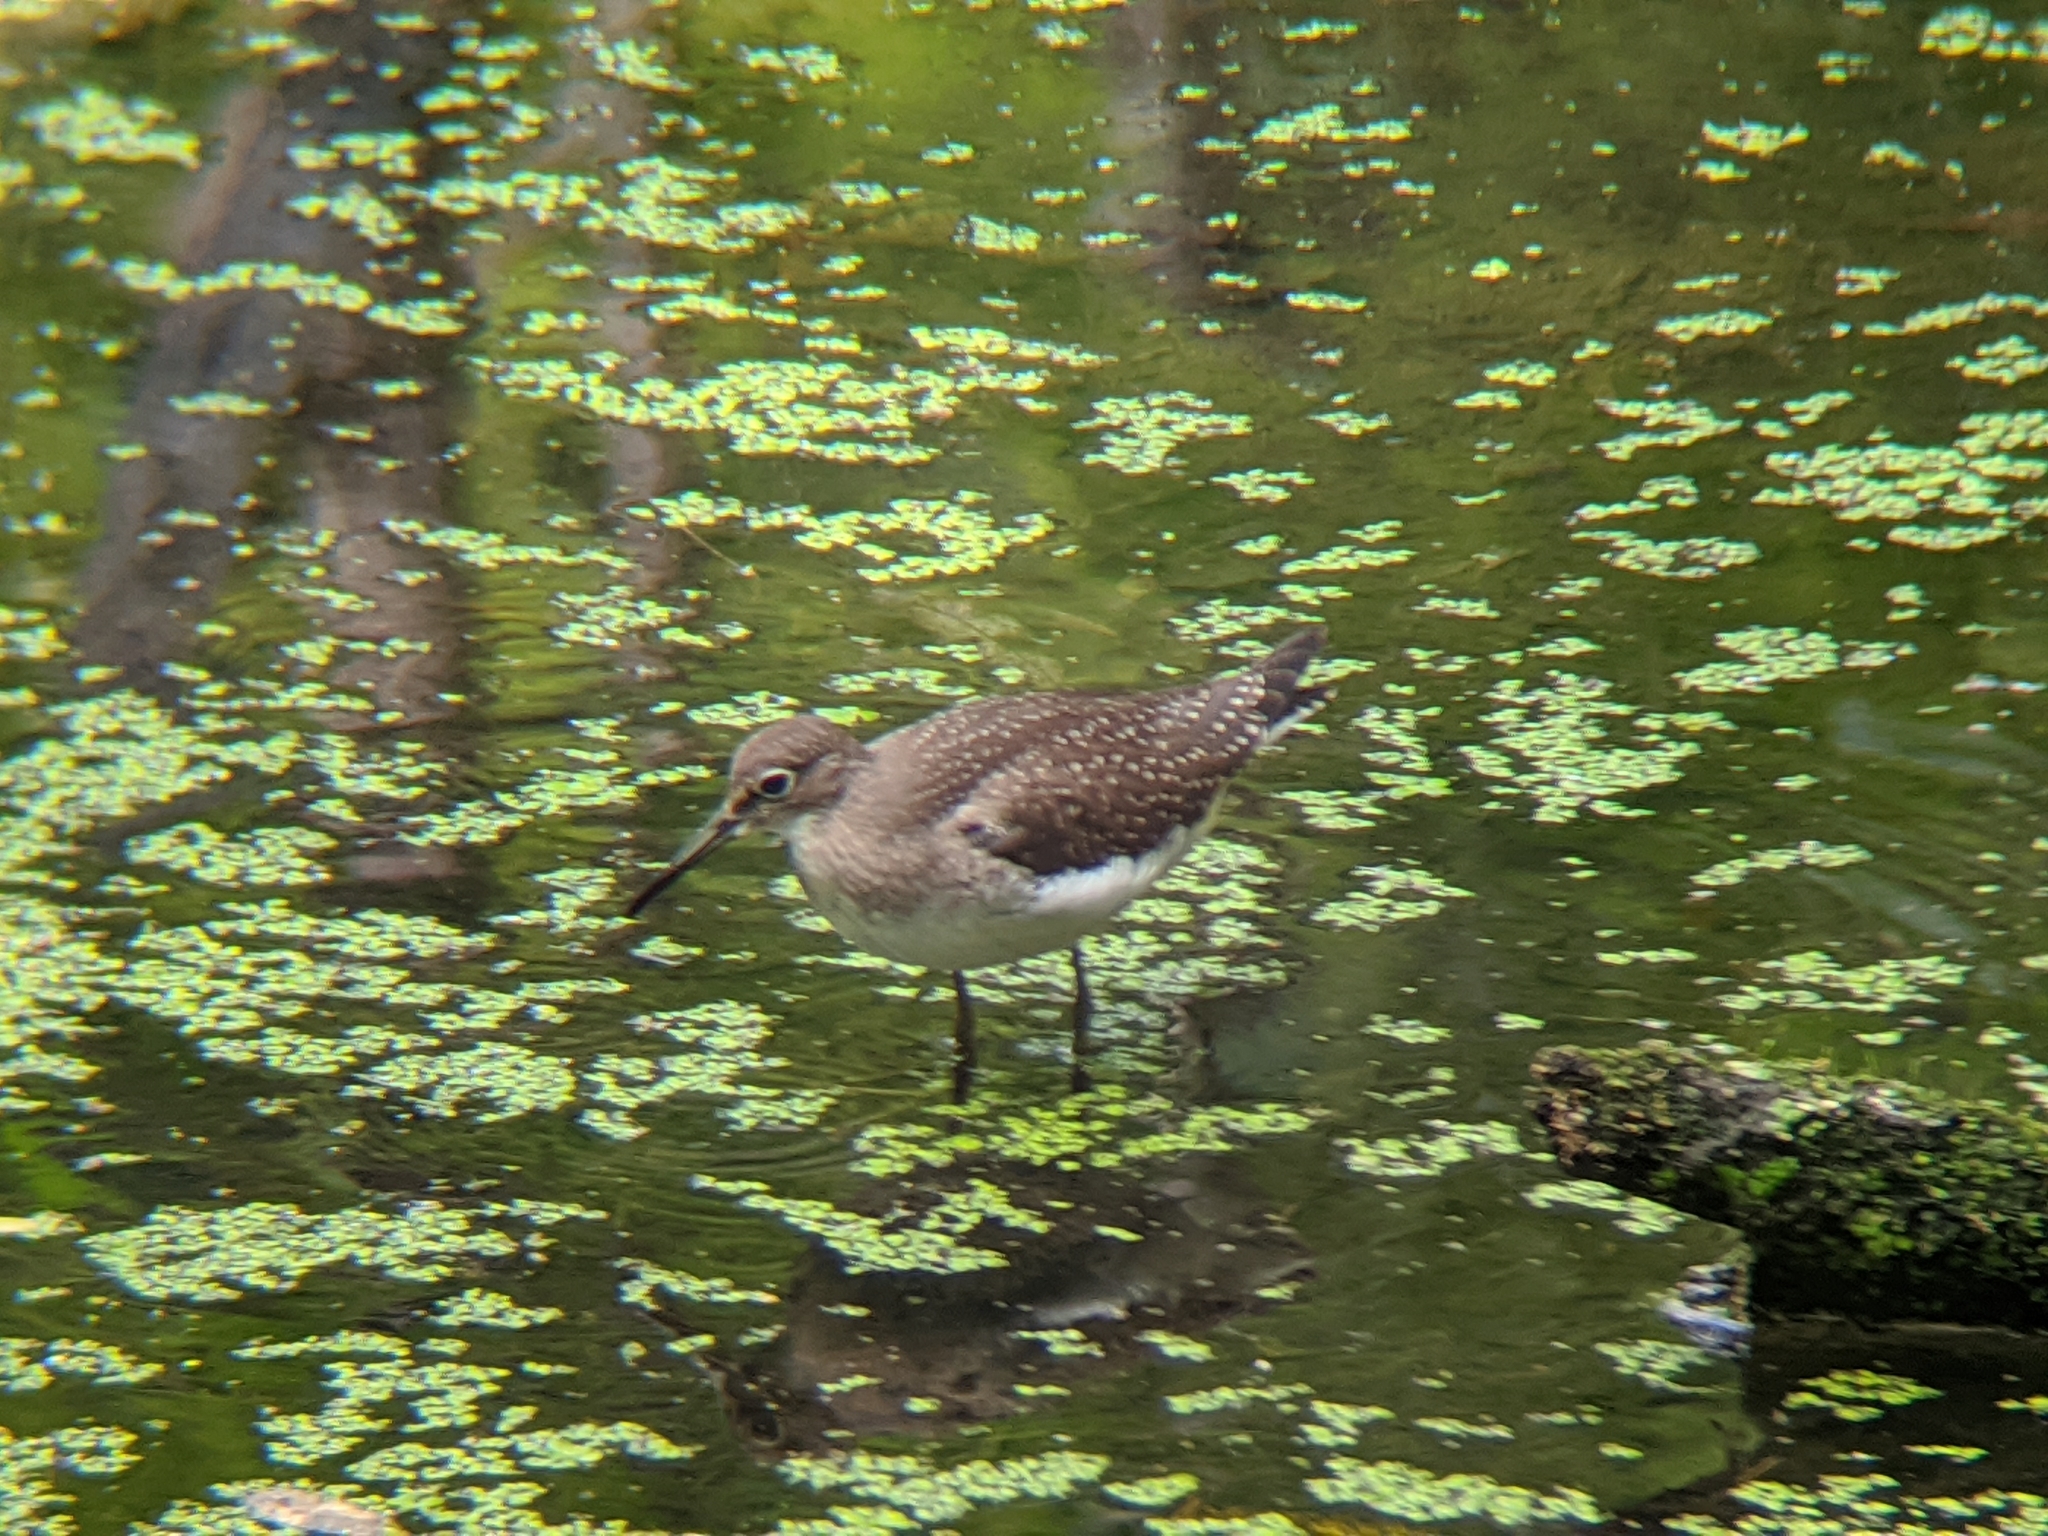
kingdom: Animalia
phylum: Chordata
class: Aves
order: Charadriiformes
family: Scolopacidae
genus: Tringa
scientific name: Tringa solitaria
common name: Solitary sandpiper
